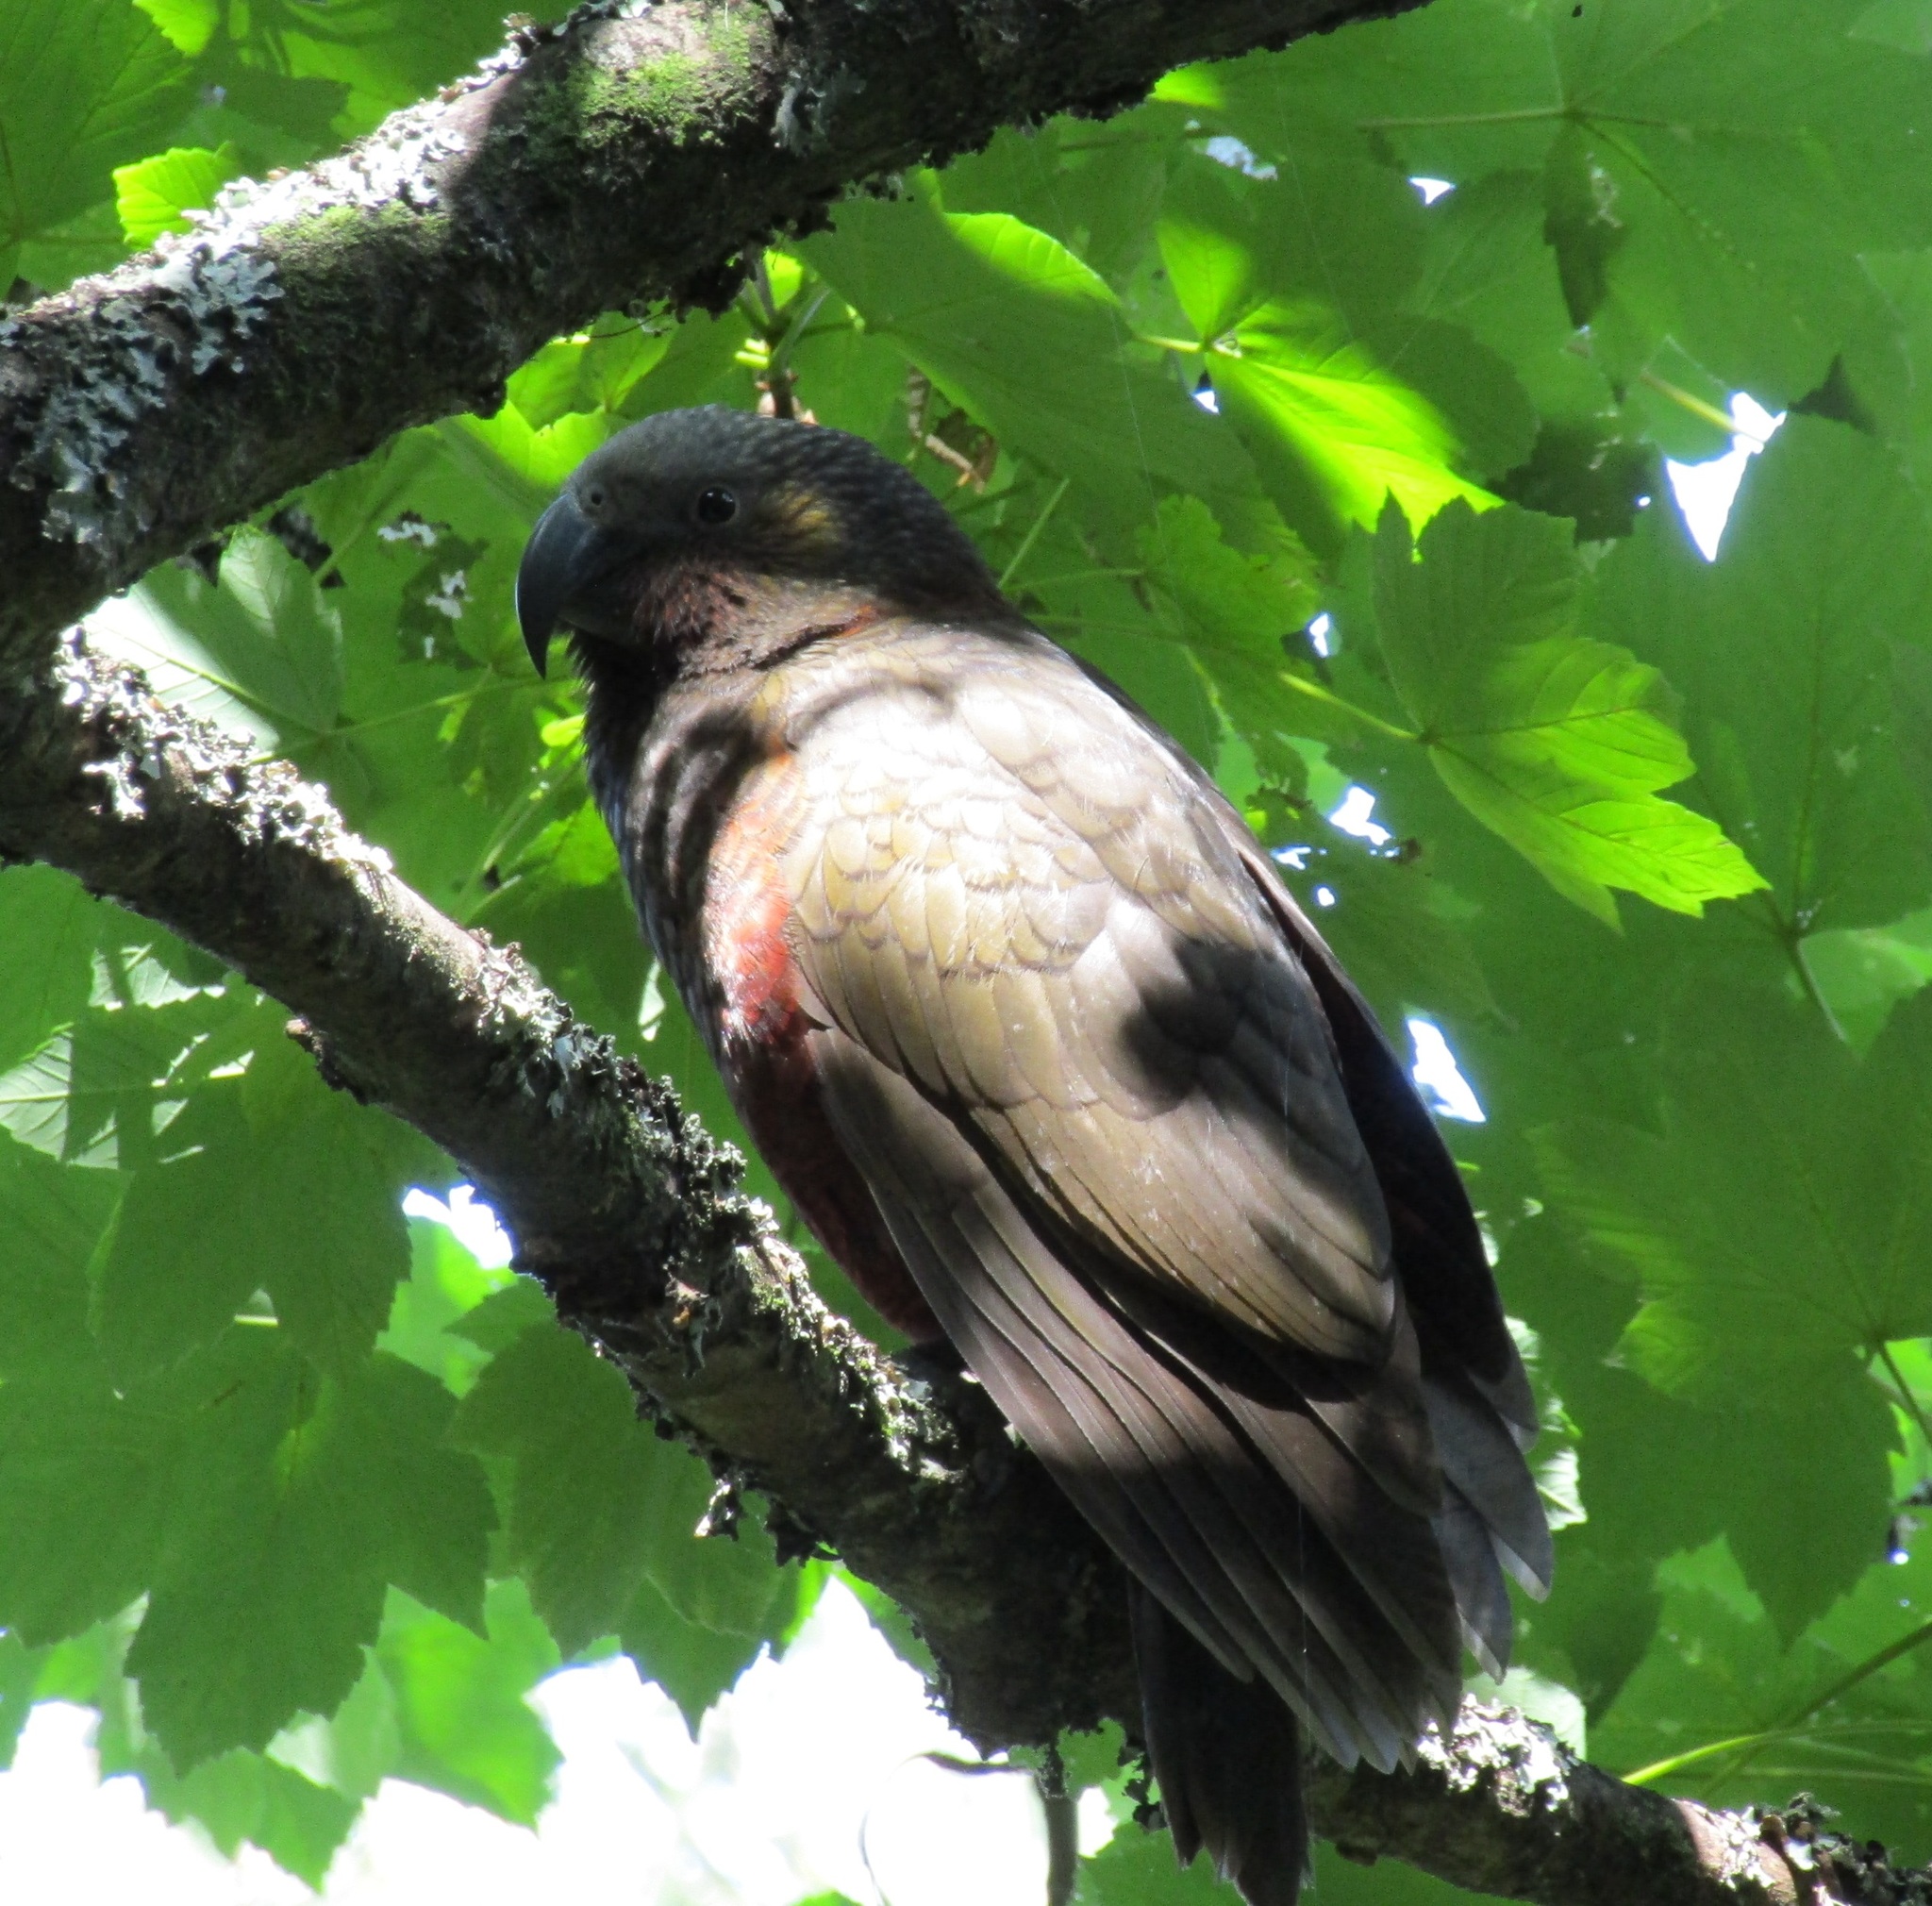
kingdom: Animalia
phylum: Chordata
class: Aves
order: Psittaciformes
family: Psittacidae
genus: Nestor
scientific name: Nestor meridionalis
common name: New zealand kaka
